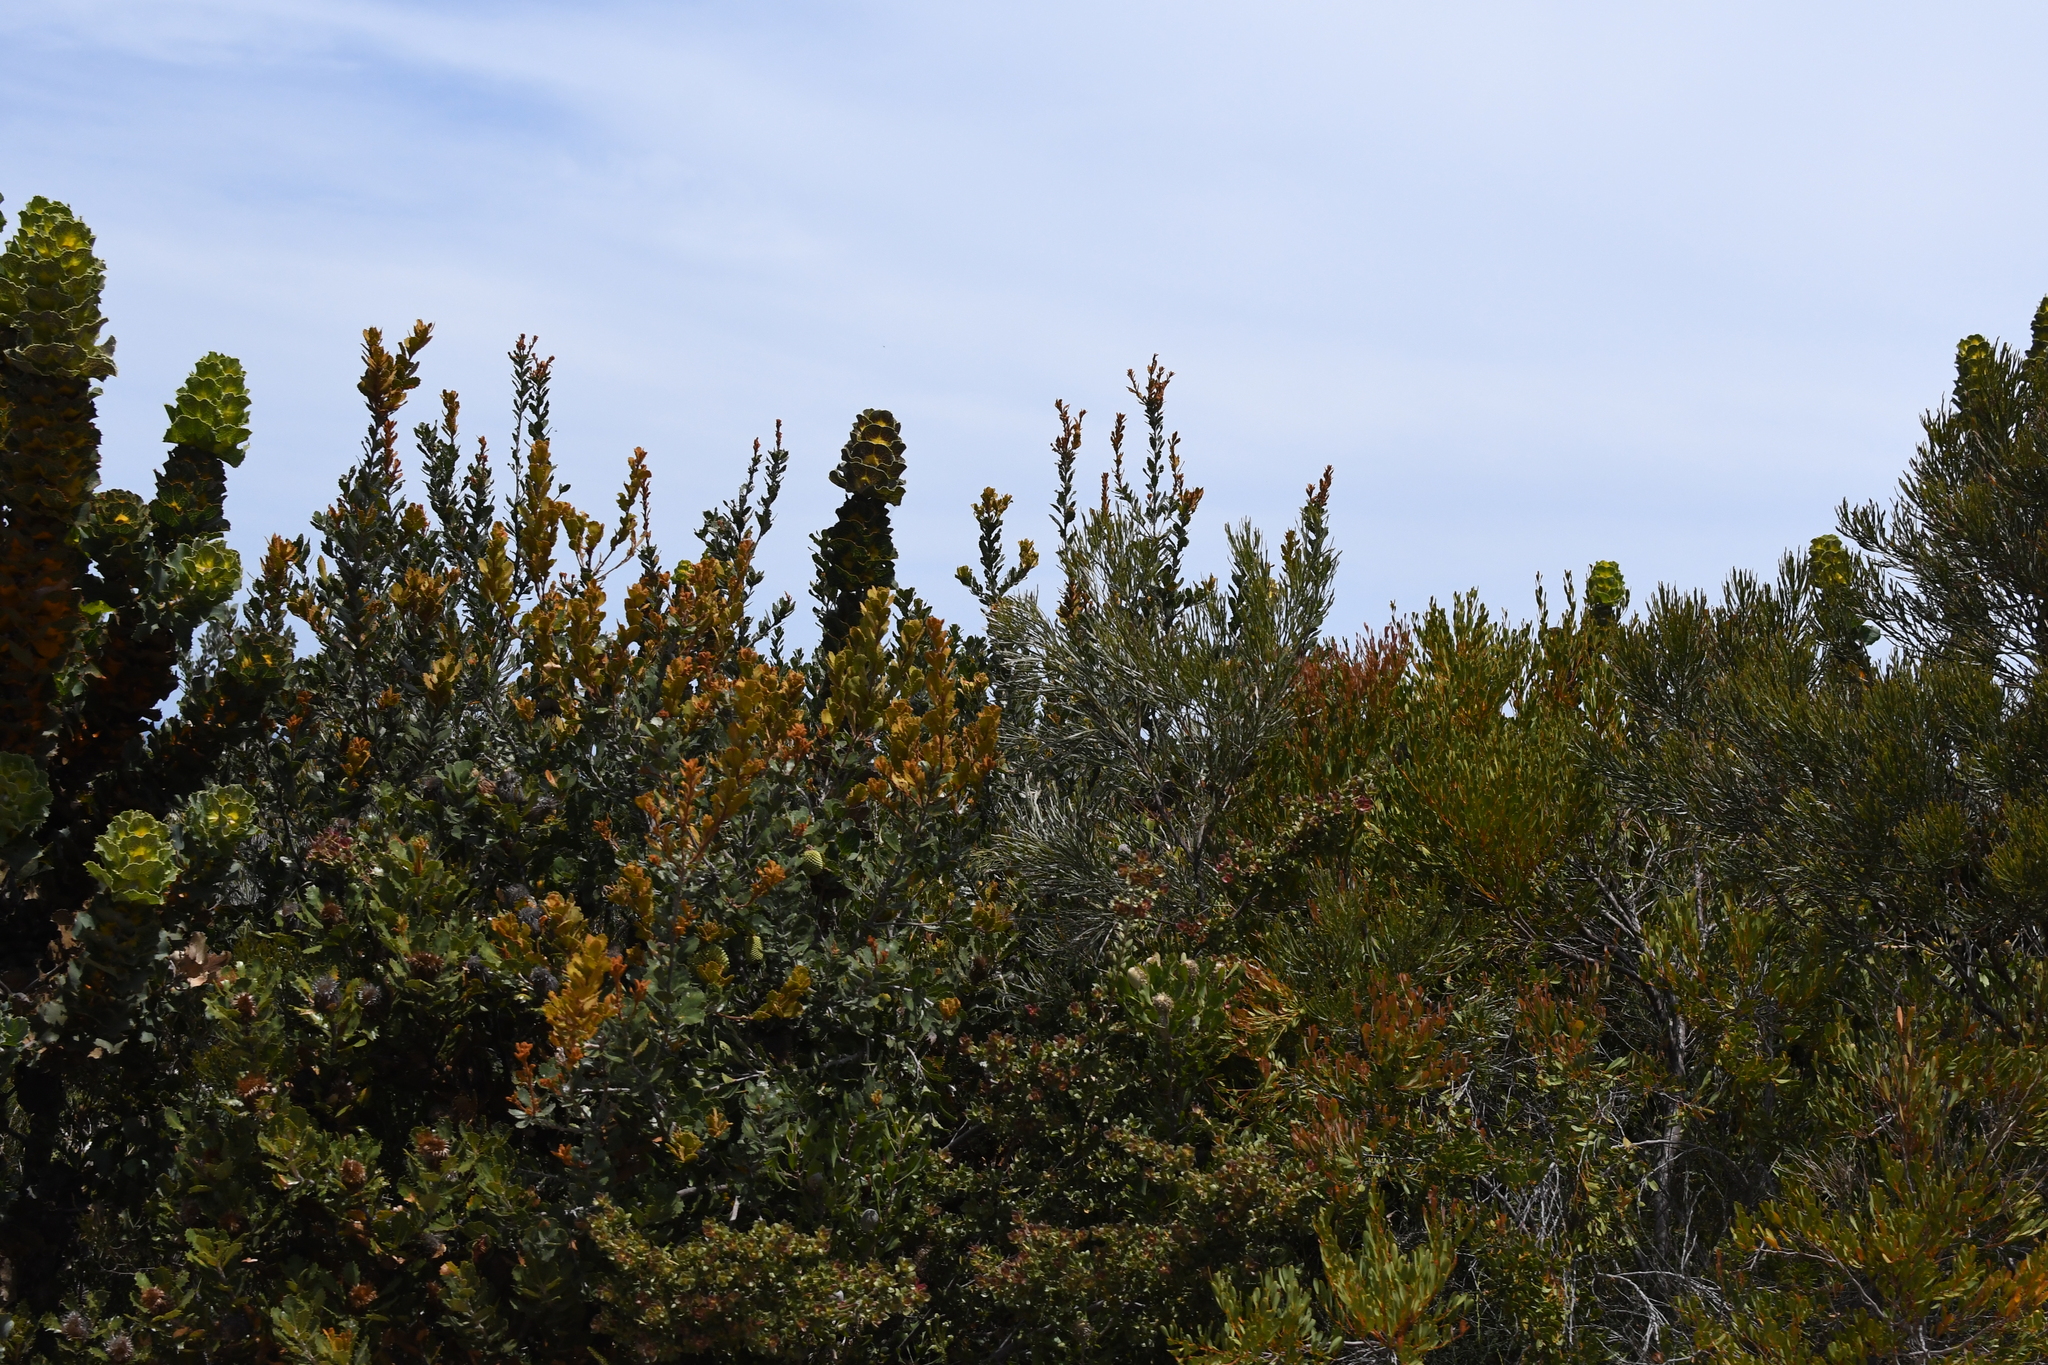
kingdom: Plantae
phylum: Tracheophyta
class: Magnoliopsida
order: Proteales
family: Proteaceae
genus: Hakea
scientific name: Hakea victoria
